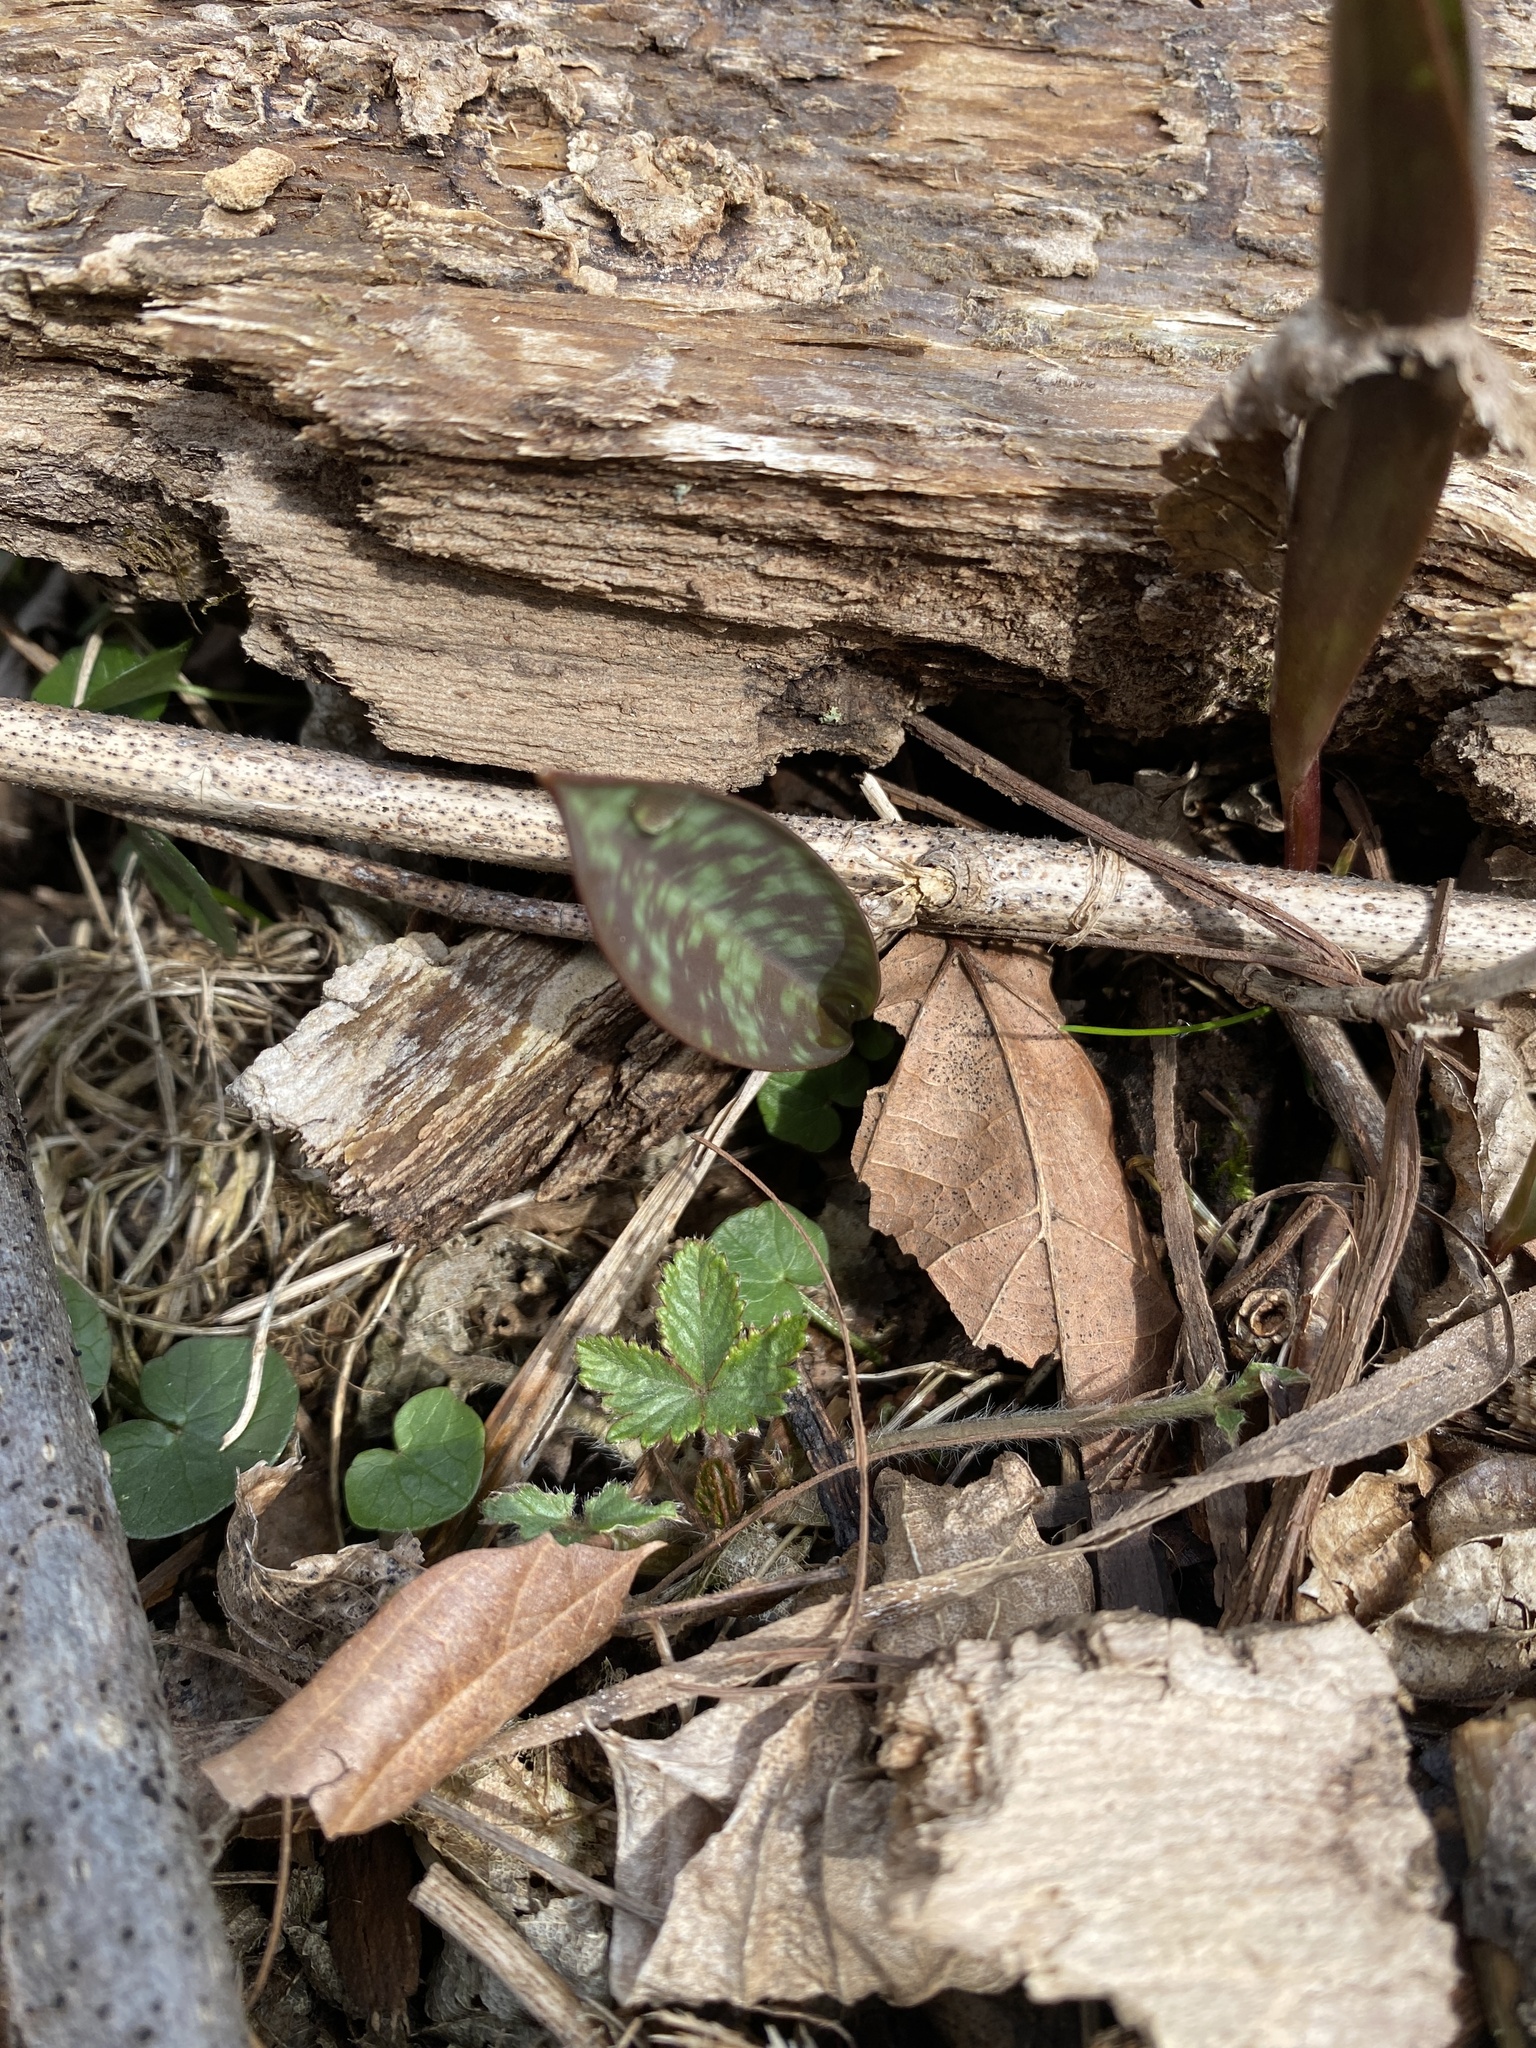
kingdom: Plantae
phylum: Tracheophyta
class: Liliopsida
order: Liliales
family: Liliaceae
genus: Erythronium
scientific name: Erythronium americanum
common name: Yellow adder's-tongue
